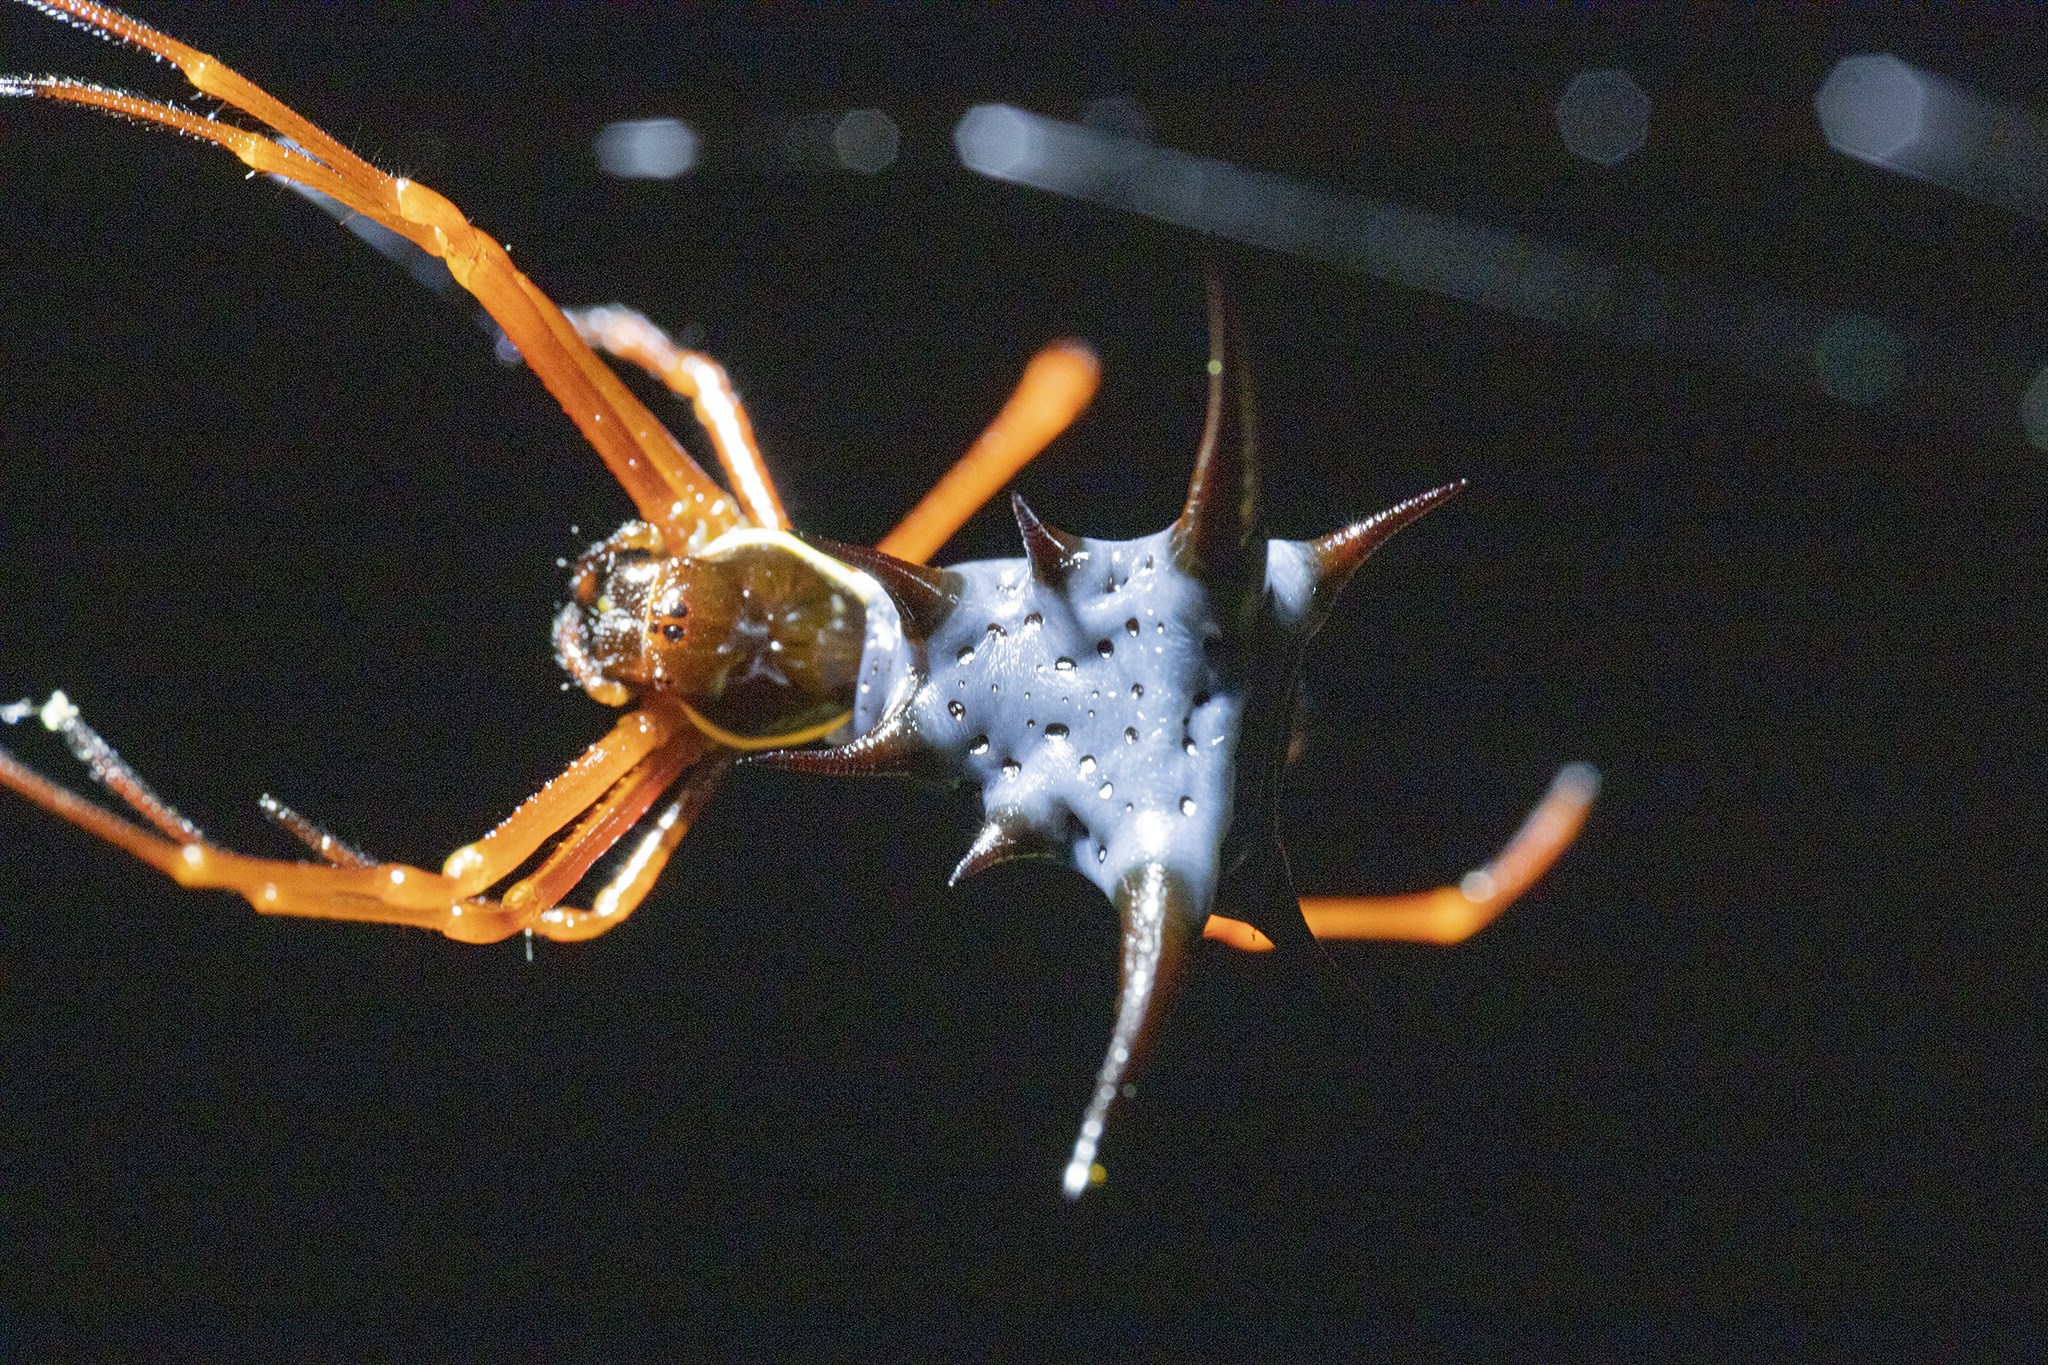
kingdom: Animalia
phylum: Arthropoda
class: Arachnida
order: Araneae
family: Araneidae
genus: Micrathena
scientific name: Micrathena schreibersi
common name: Orb weavers
